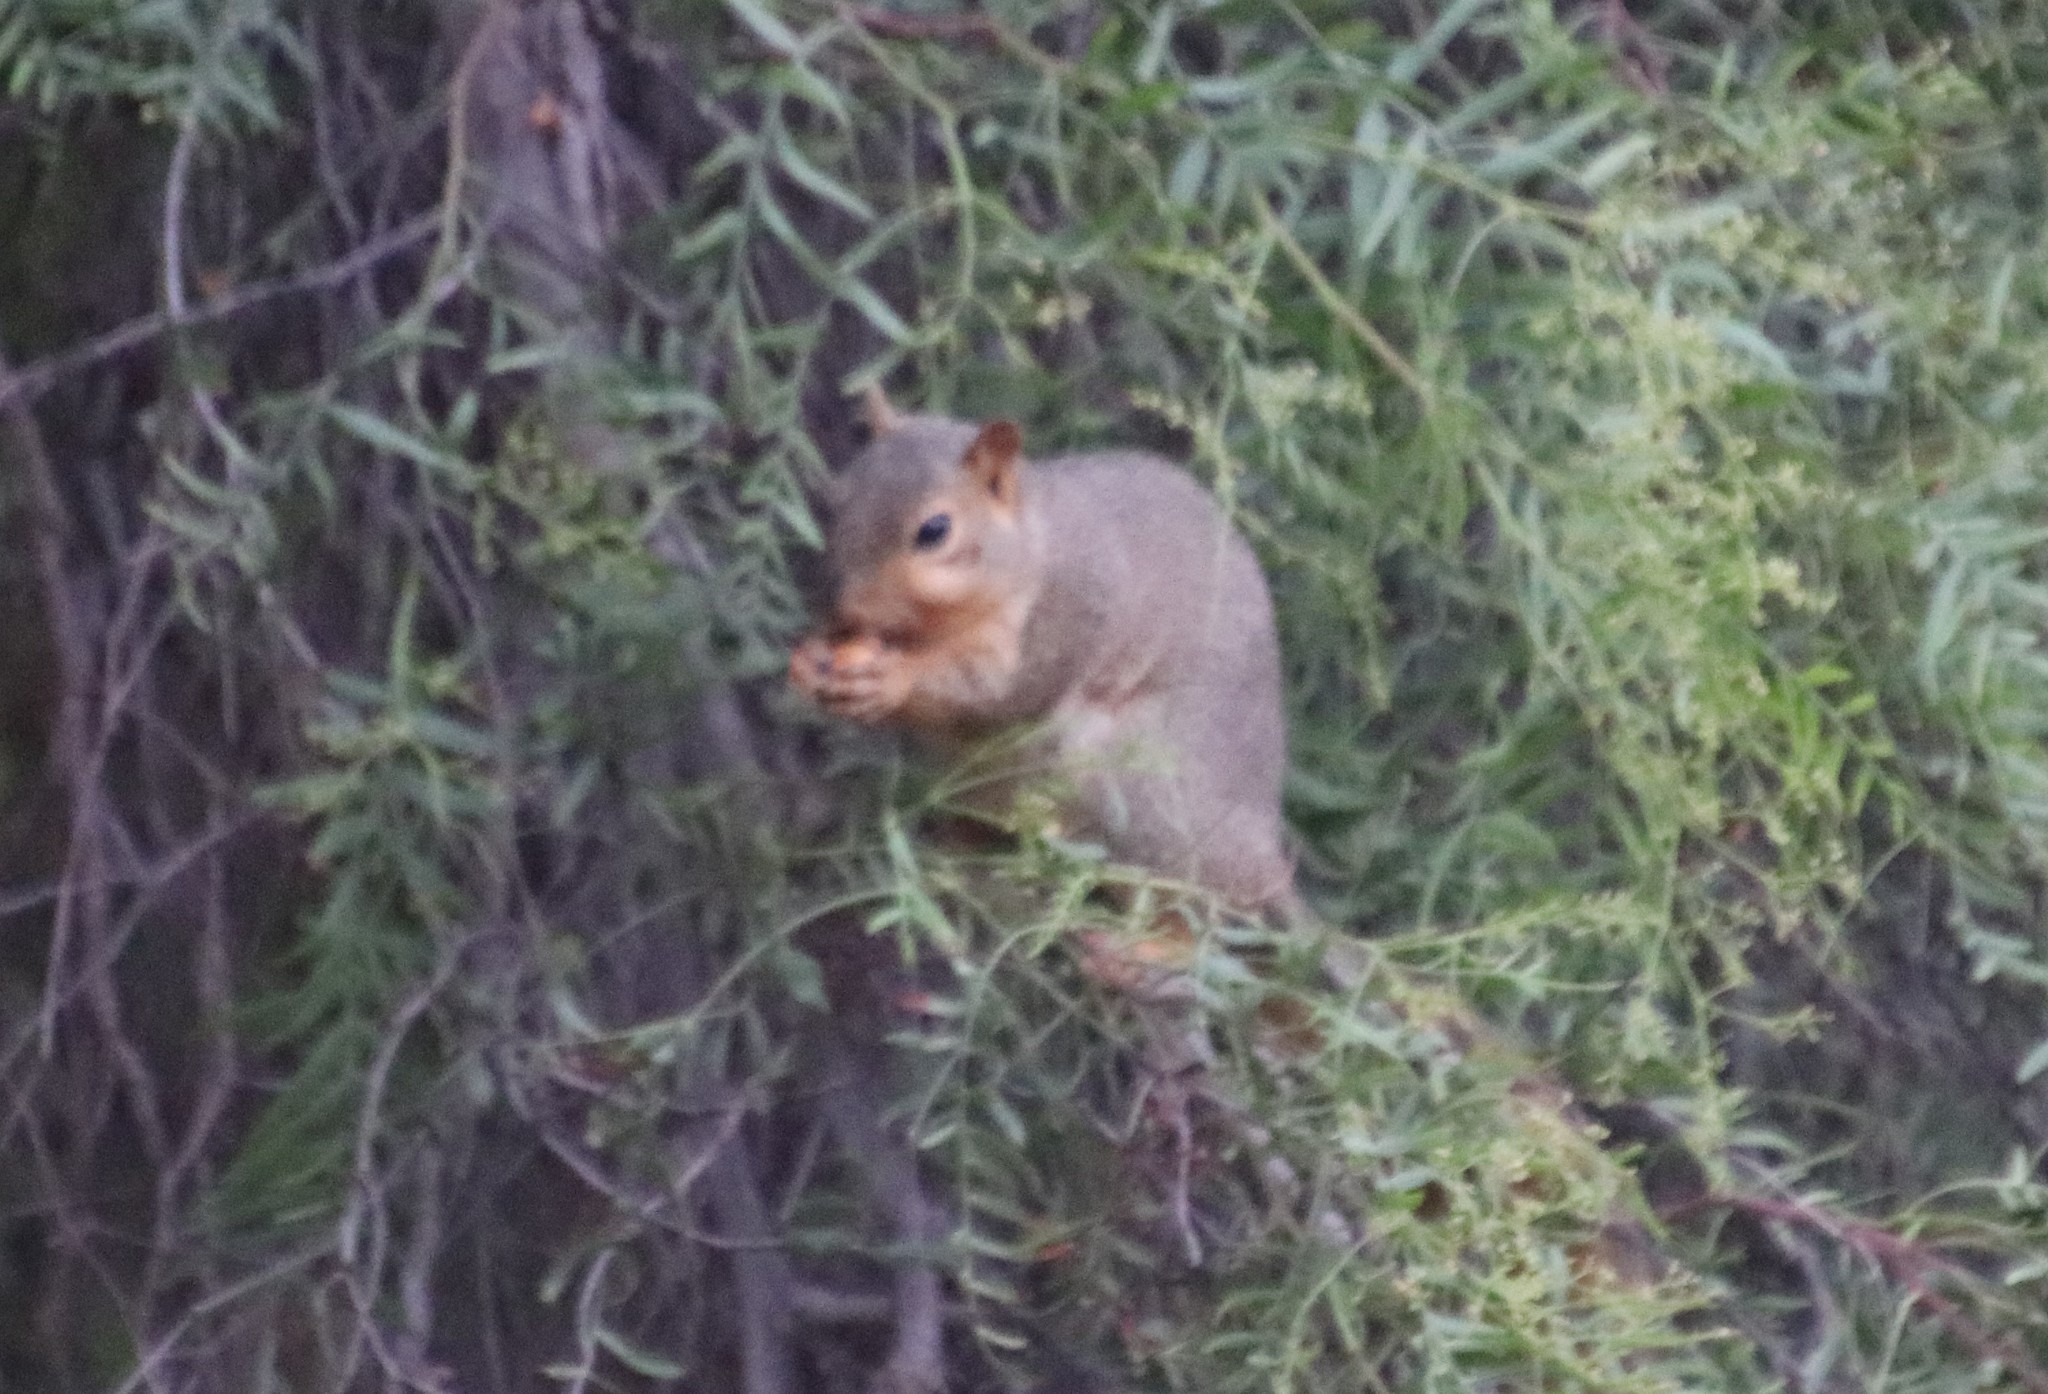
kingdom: Animalia
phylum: Chordata
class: Mammalia
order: Rodentia
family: Sciuridae
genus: Sciurus
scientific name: Sciurus niger
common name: Fox squirrel
